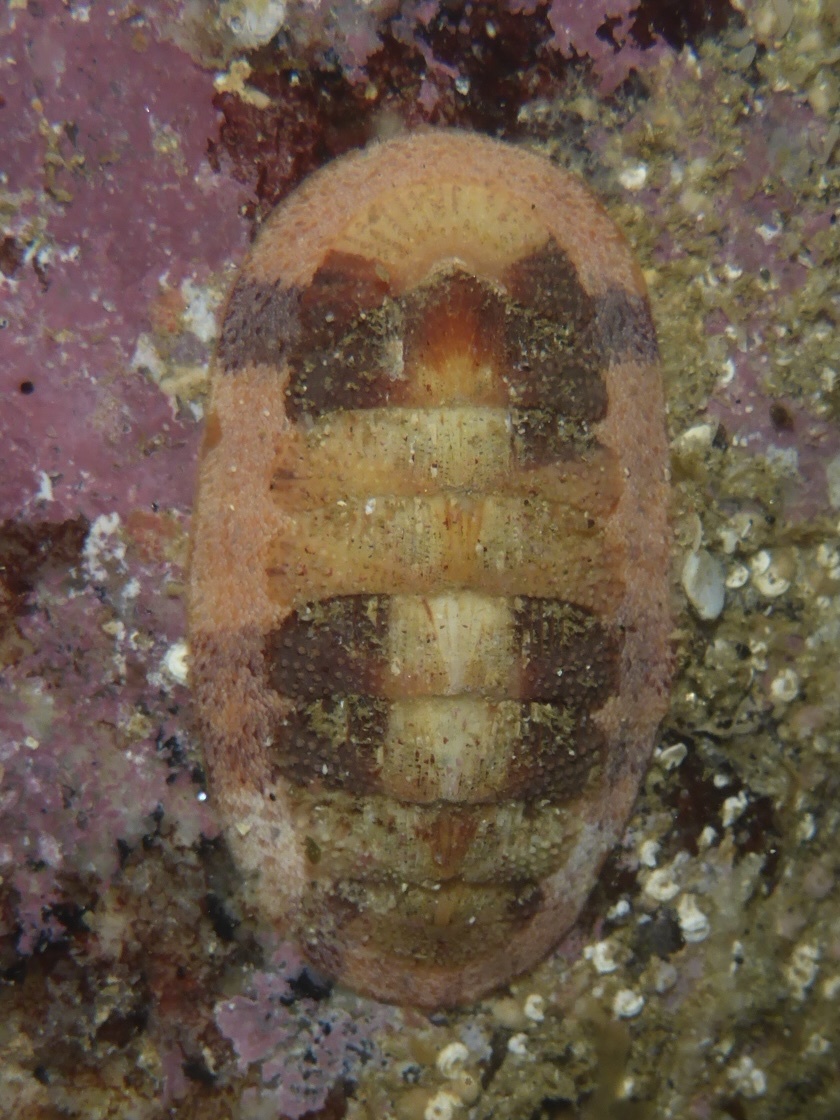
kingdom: Animalia
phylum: Mollusca
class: Polyplacophora
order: Chitonida
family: Ischnochitonidae
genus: Lepidozona
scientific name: Lepidozona mertensii
